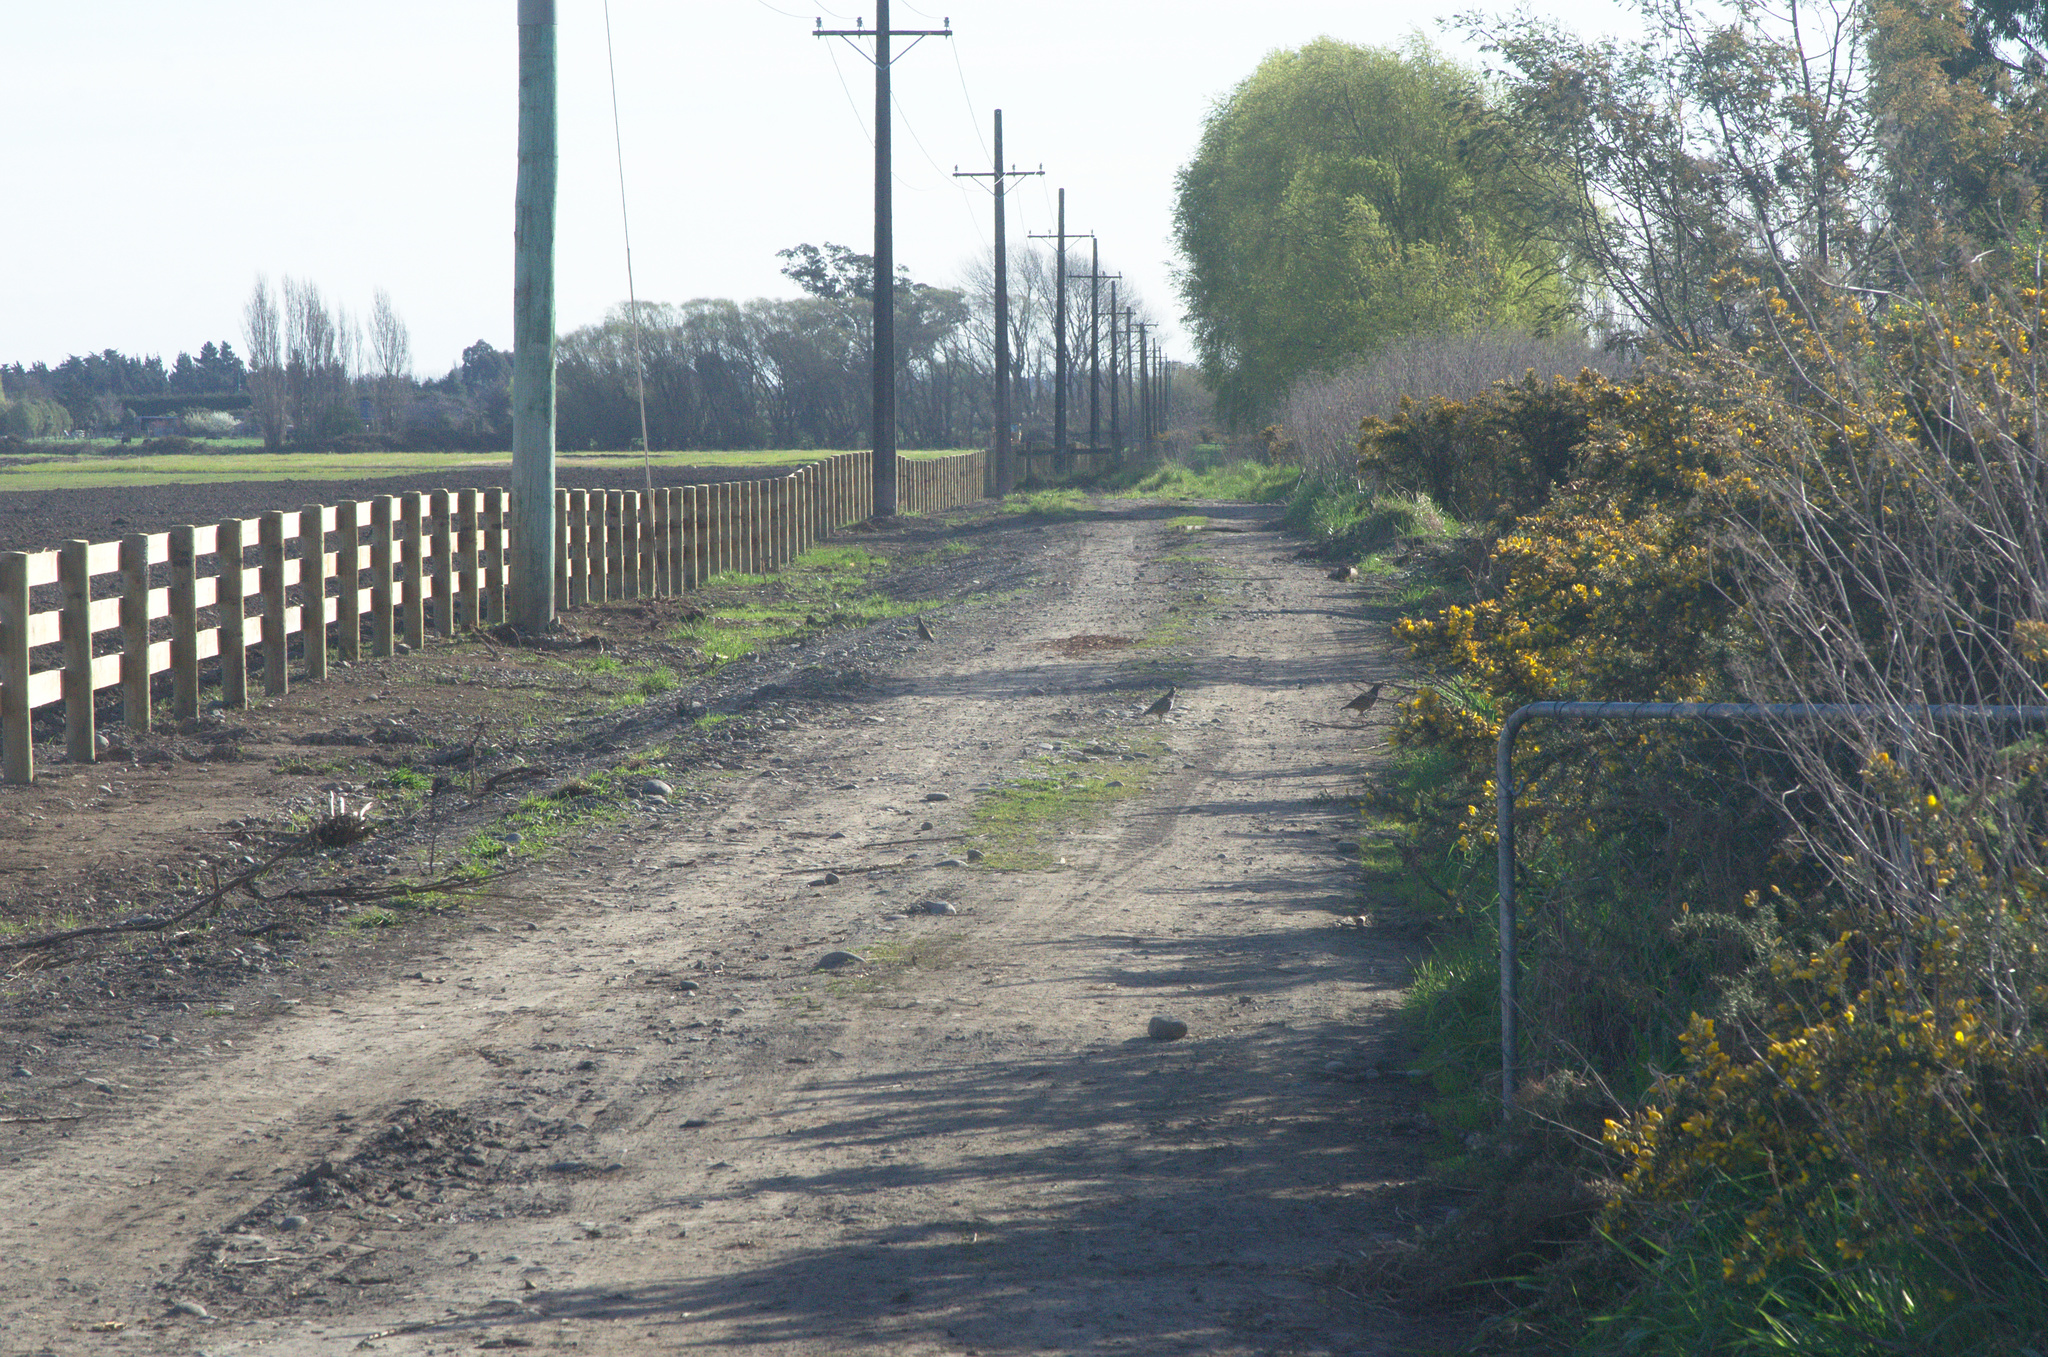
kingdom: Animalia
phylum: Chordata
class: Aves
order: Galliformes
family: Odontophoridae
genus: Callipepla
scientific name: Callipepla californica
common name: California quail
